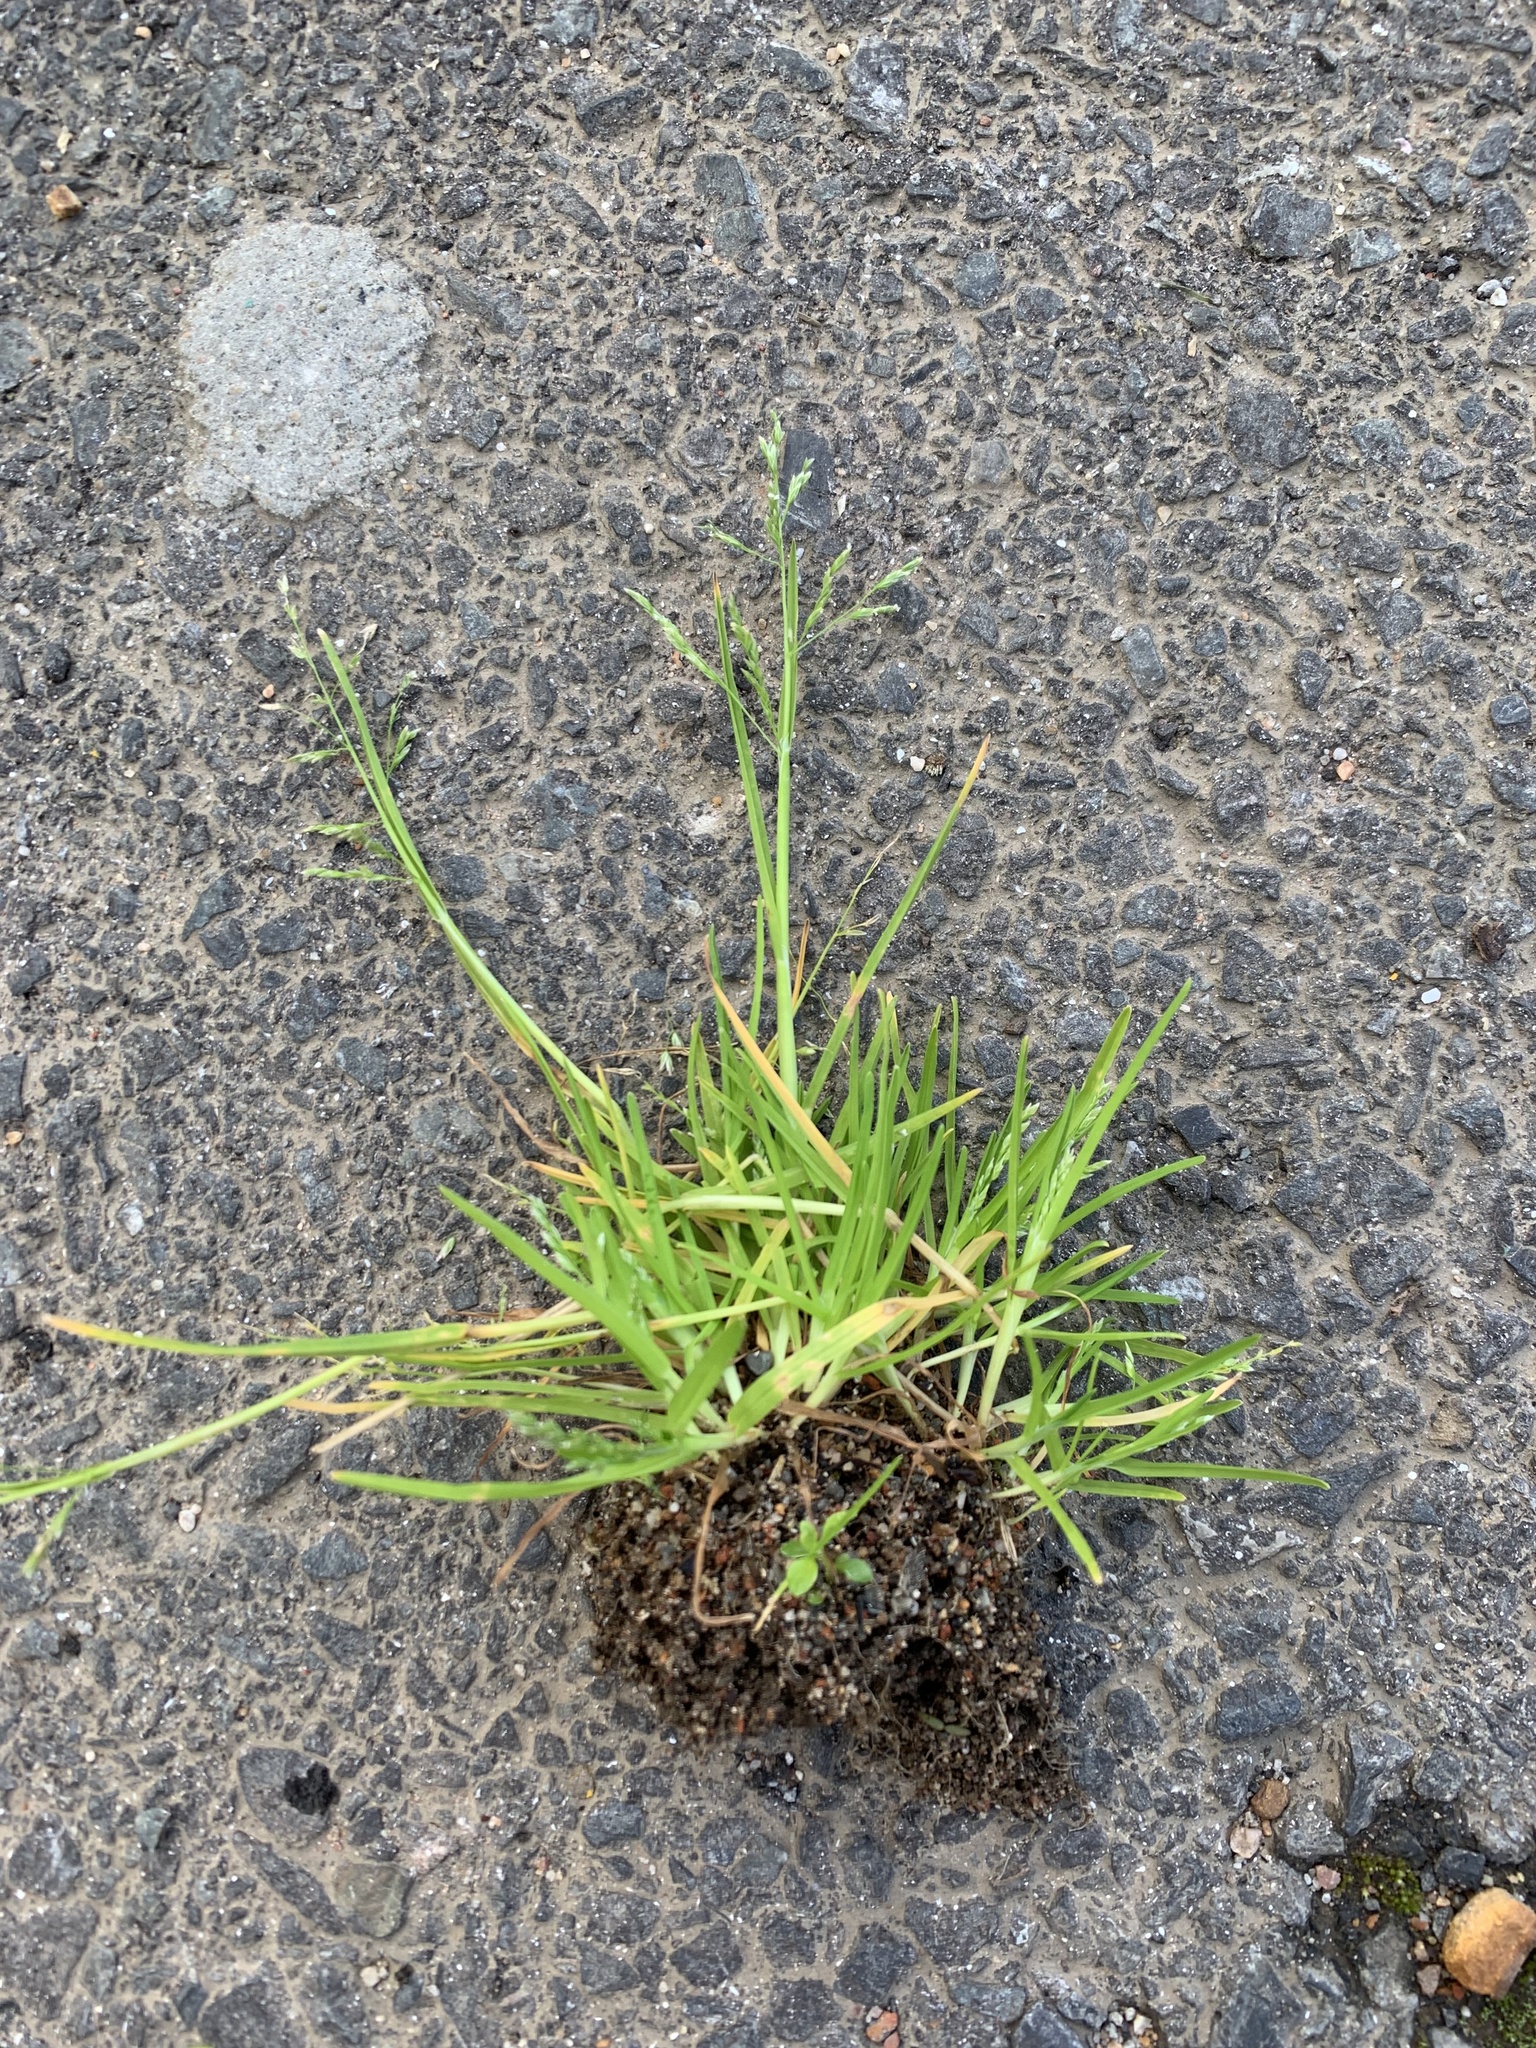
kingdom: Plantae
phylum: Tracheophyta
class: Liliopsida
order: Poales
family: Poaceae
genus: Poa
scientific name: Poa annua
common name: Annual bluegrass
